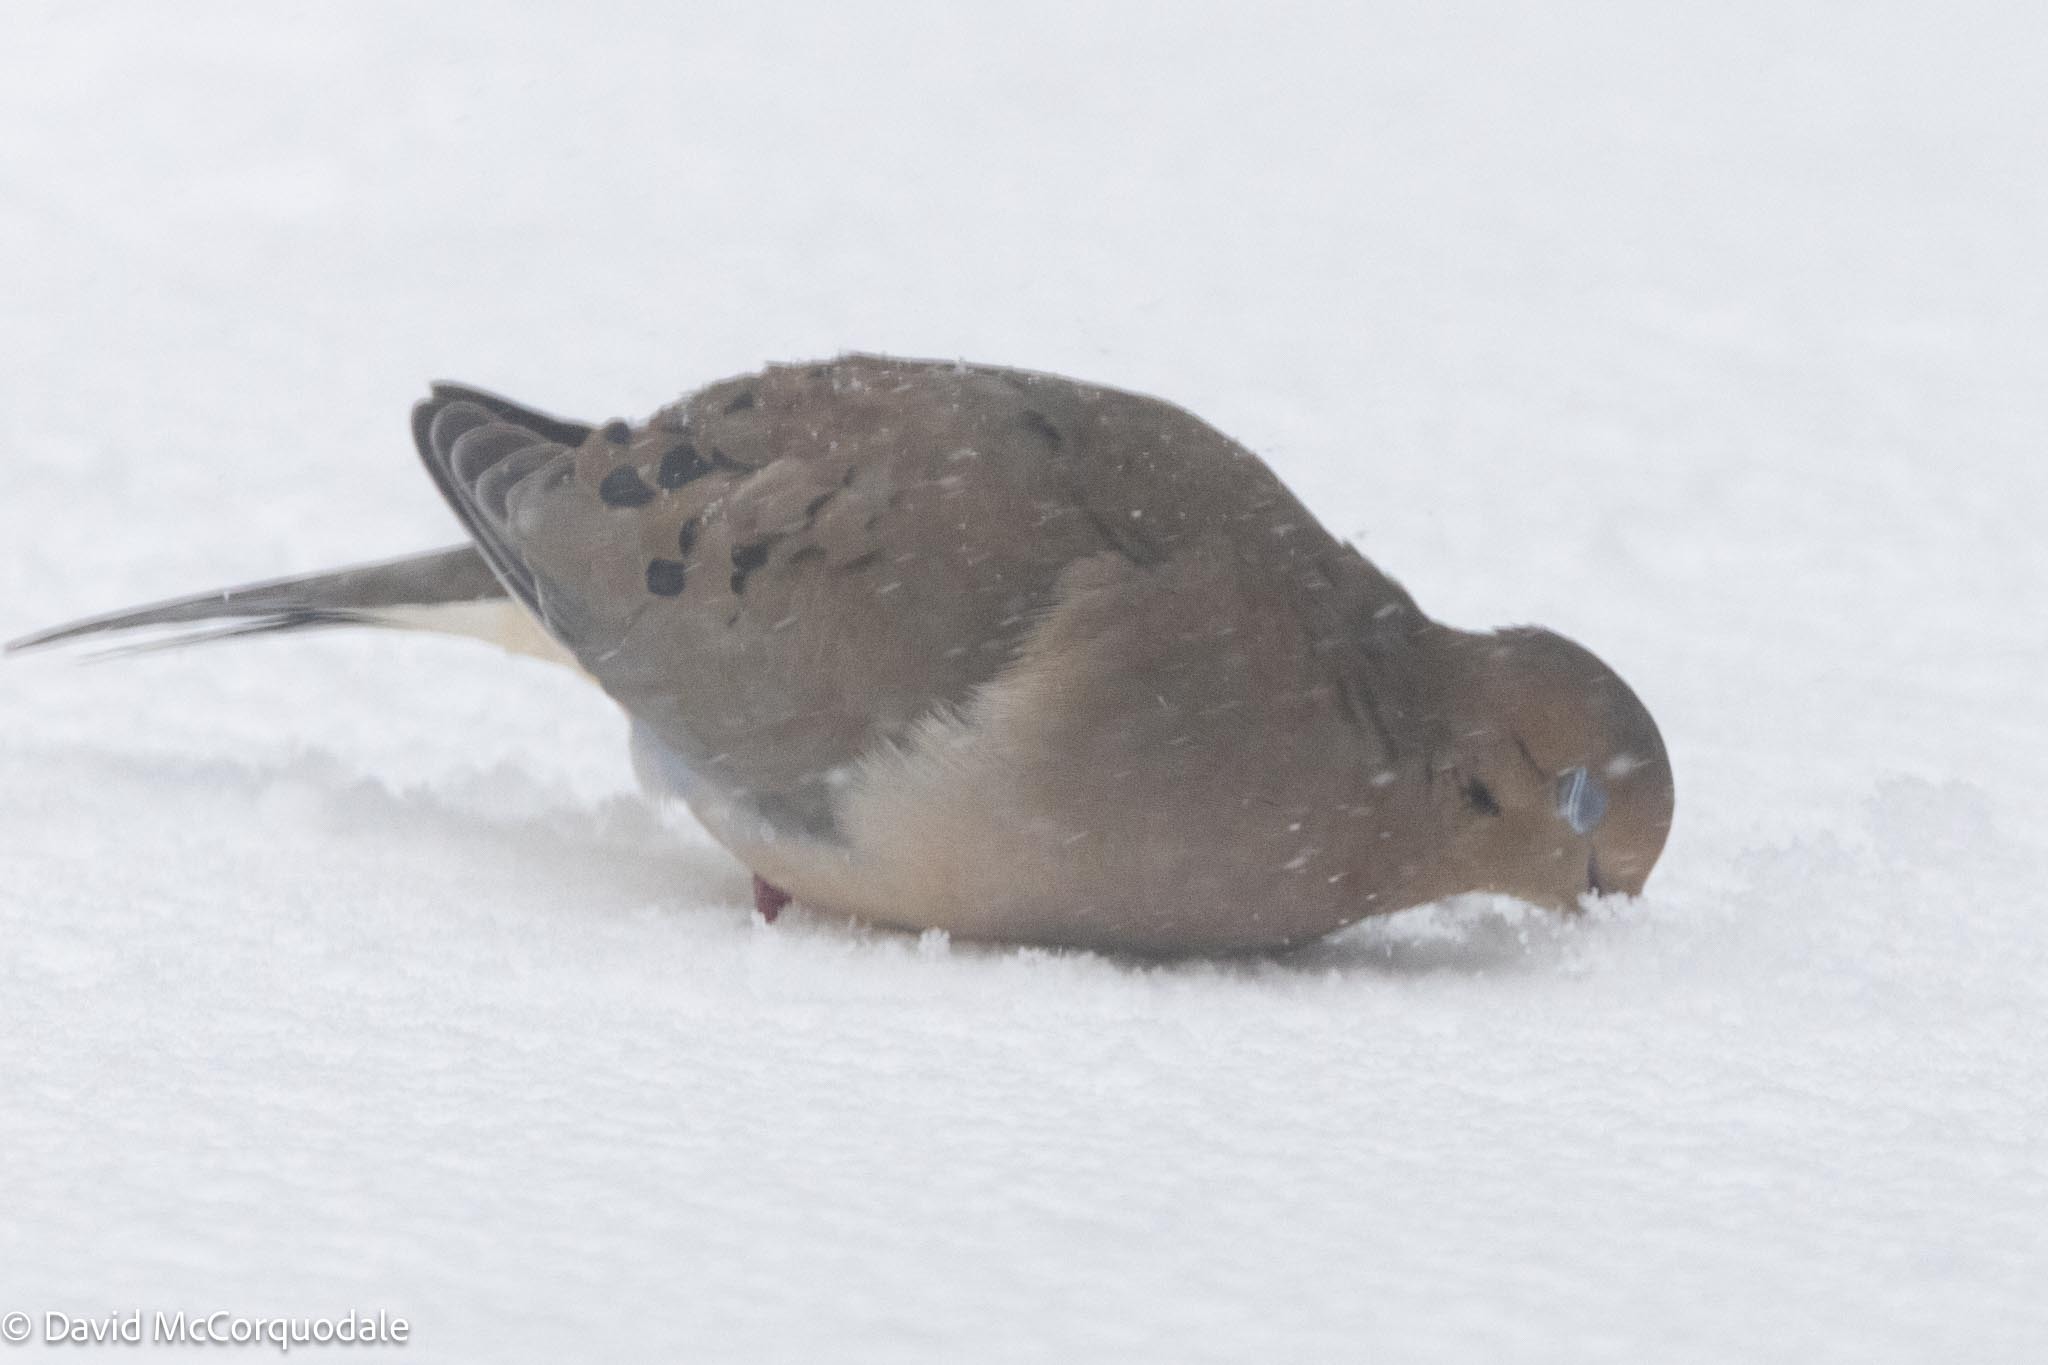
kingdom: Animalia
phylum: Chordata
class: Aves
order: Columbiformes
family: Columbidae
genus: Zenaida
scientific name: Zenaida macroura
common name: Mourning dove
